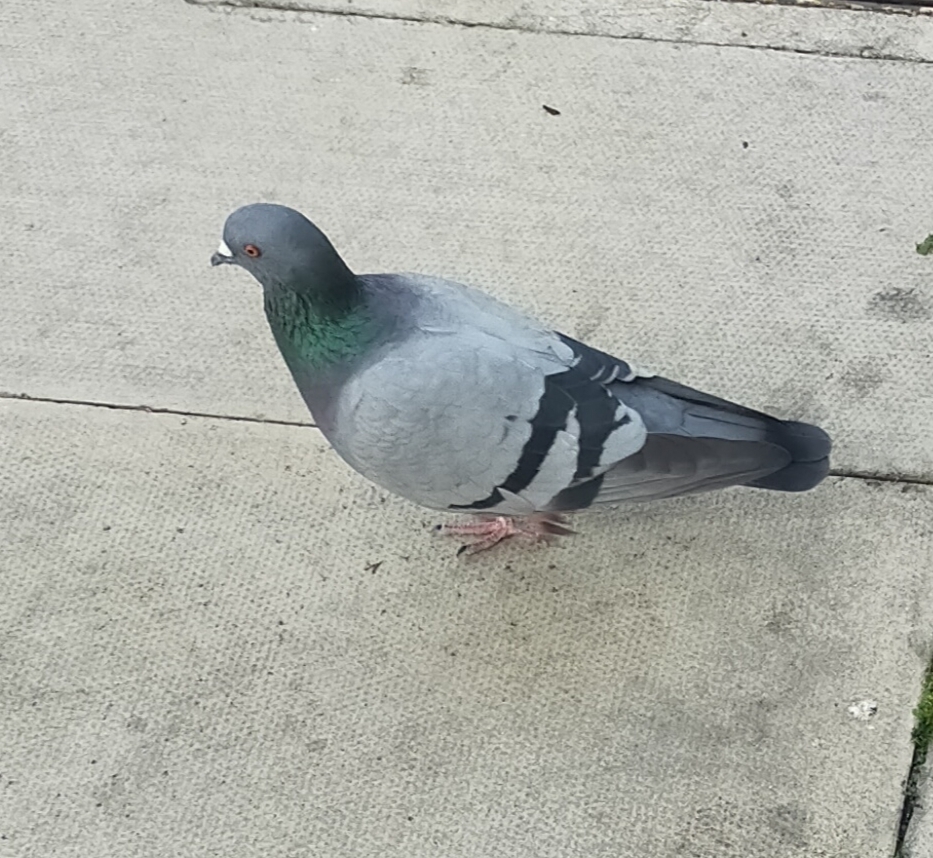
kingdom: Animalia
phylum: Chordata
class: Aves
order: Columbiformes
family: Columbidae
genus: Columba
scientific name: Columba livia
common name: Rock pigeon
